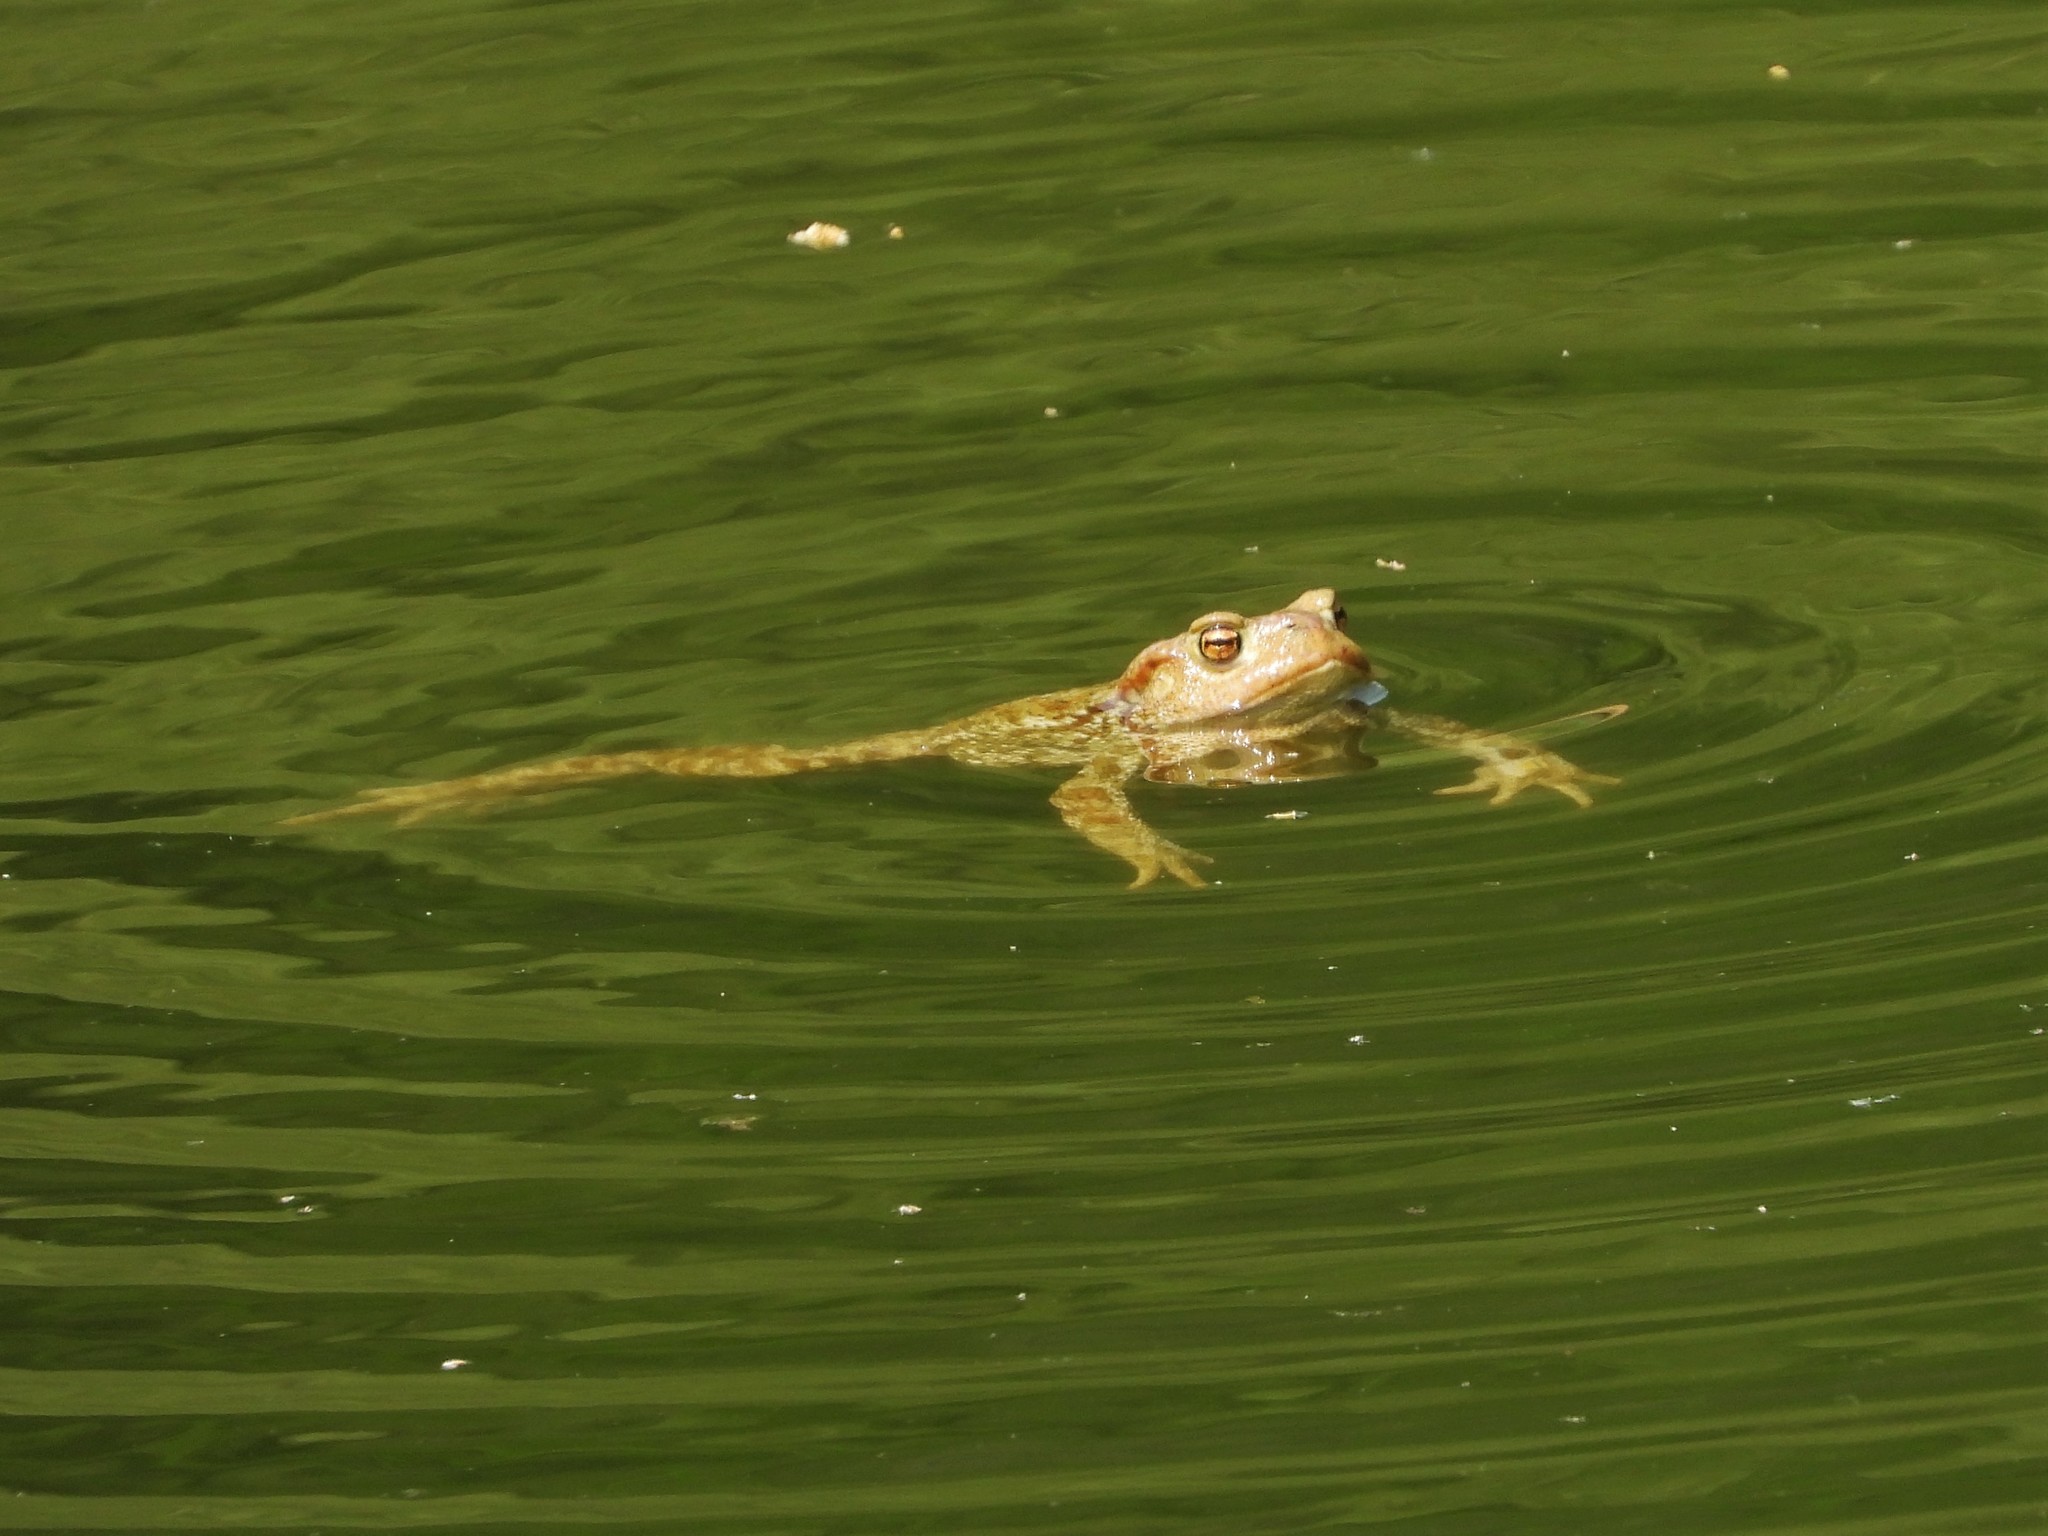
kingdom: Animalia
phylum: Chordata
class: Amphibia
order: Anura
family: Bufonidae
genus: Bufo
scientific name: Bufo bufo
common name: Common toad
